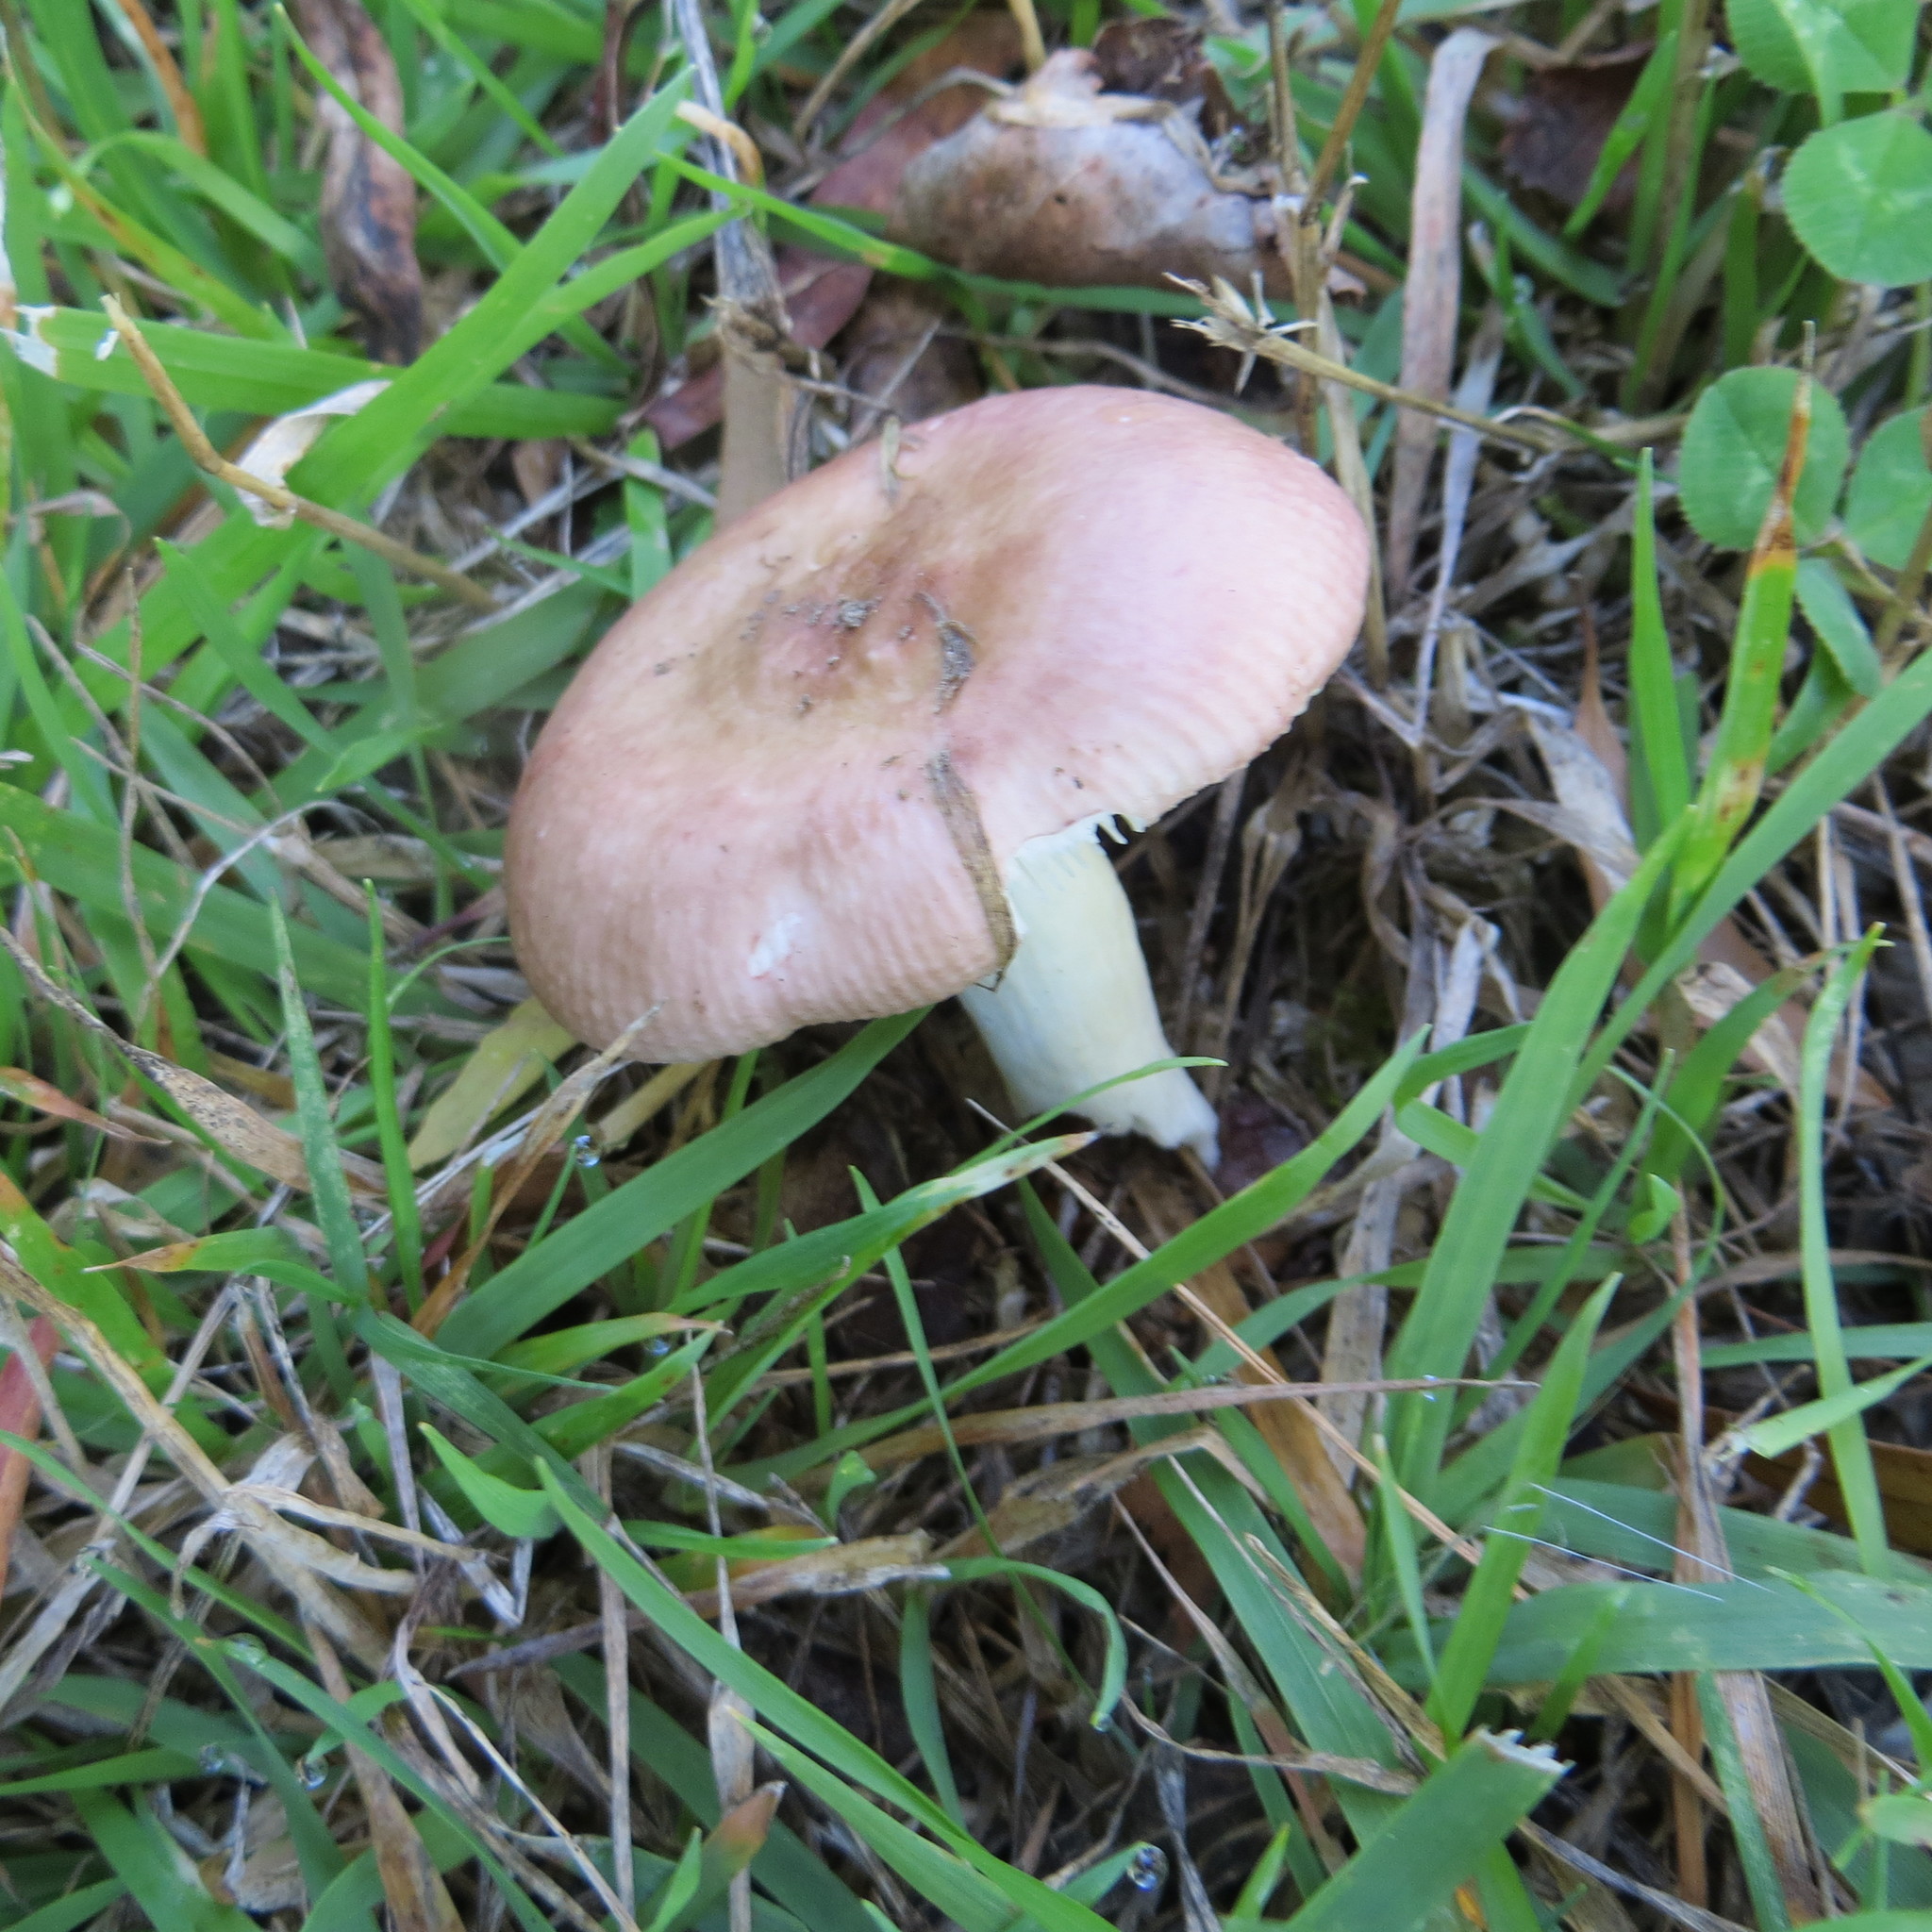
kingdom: Fungi
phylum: Basidiomycota
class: Agaricomycetes
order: Russulales
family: Russulaceae
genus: Russula
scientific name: Russula nitida
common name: Purple swamp brittlegill
